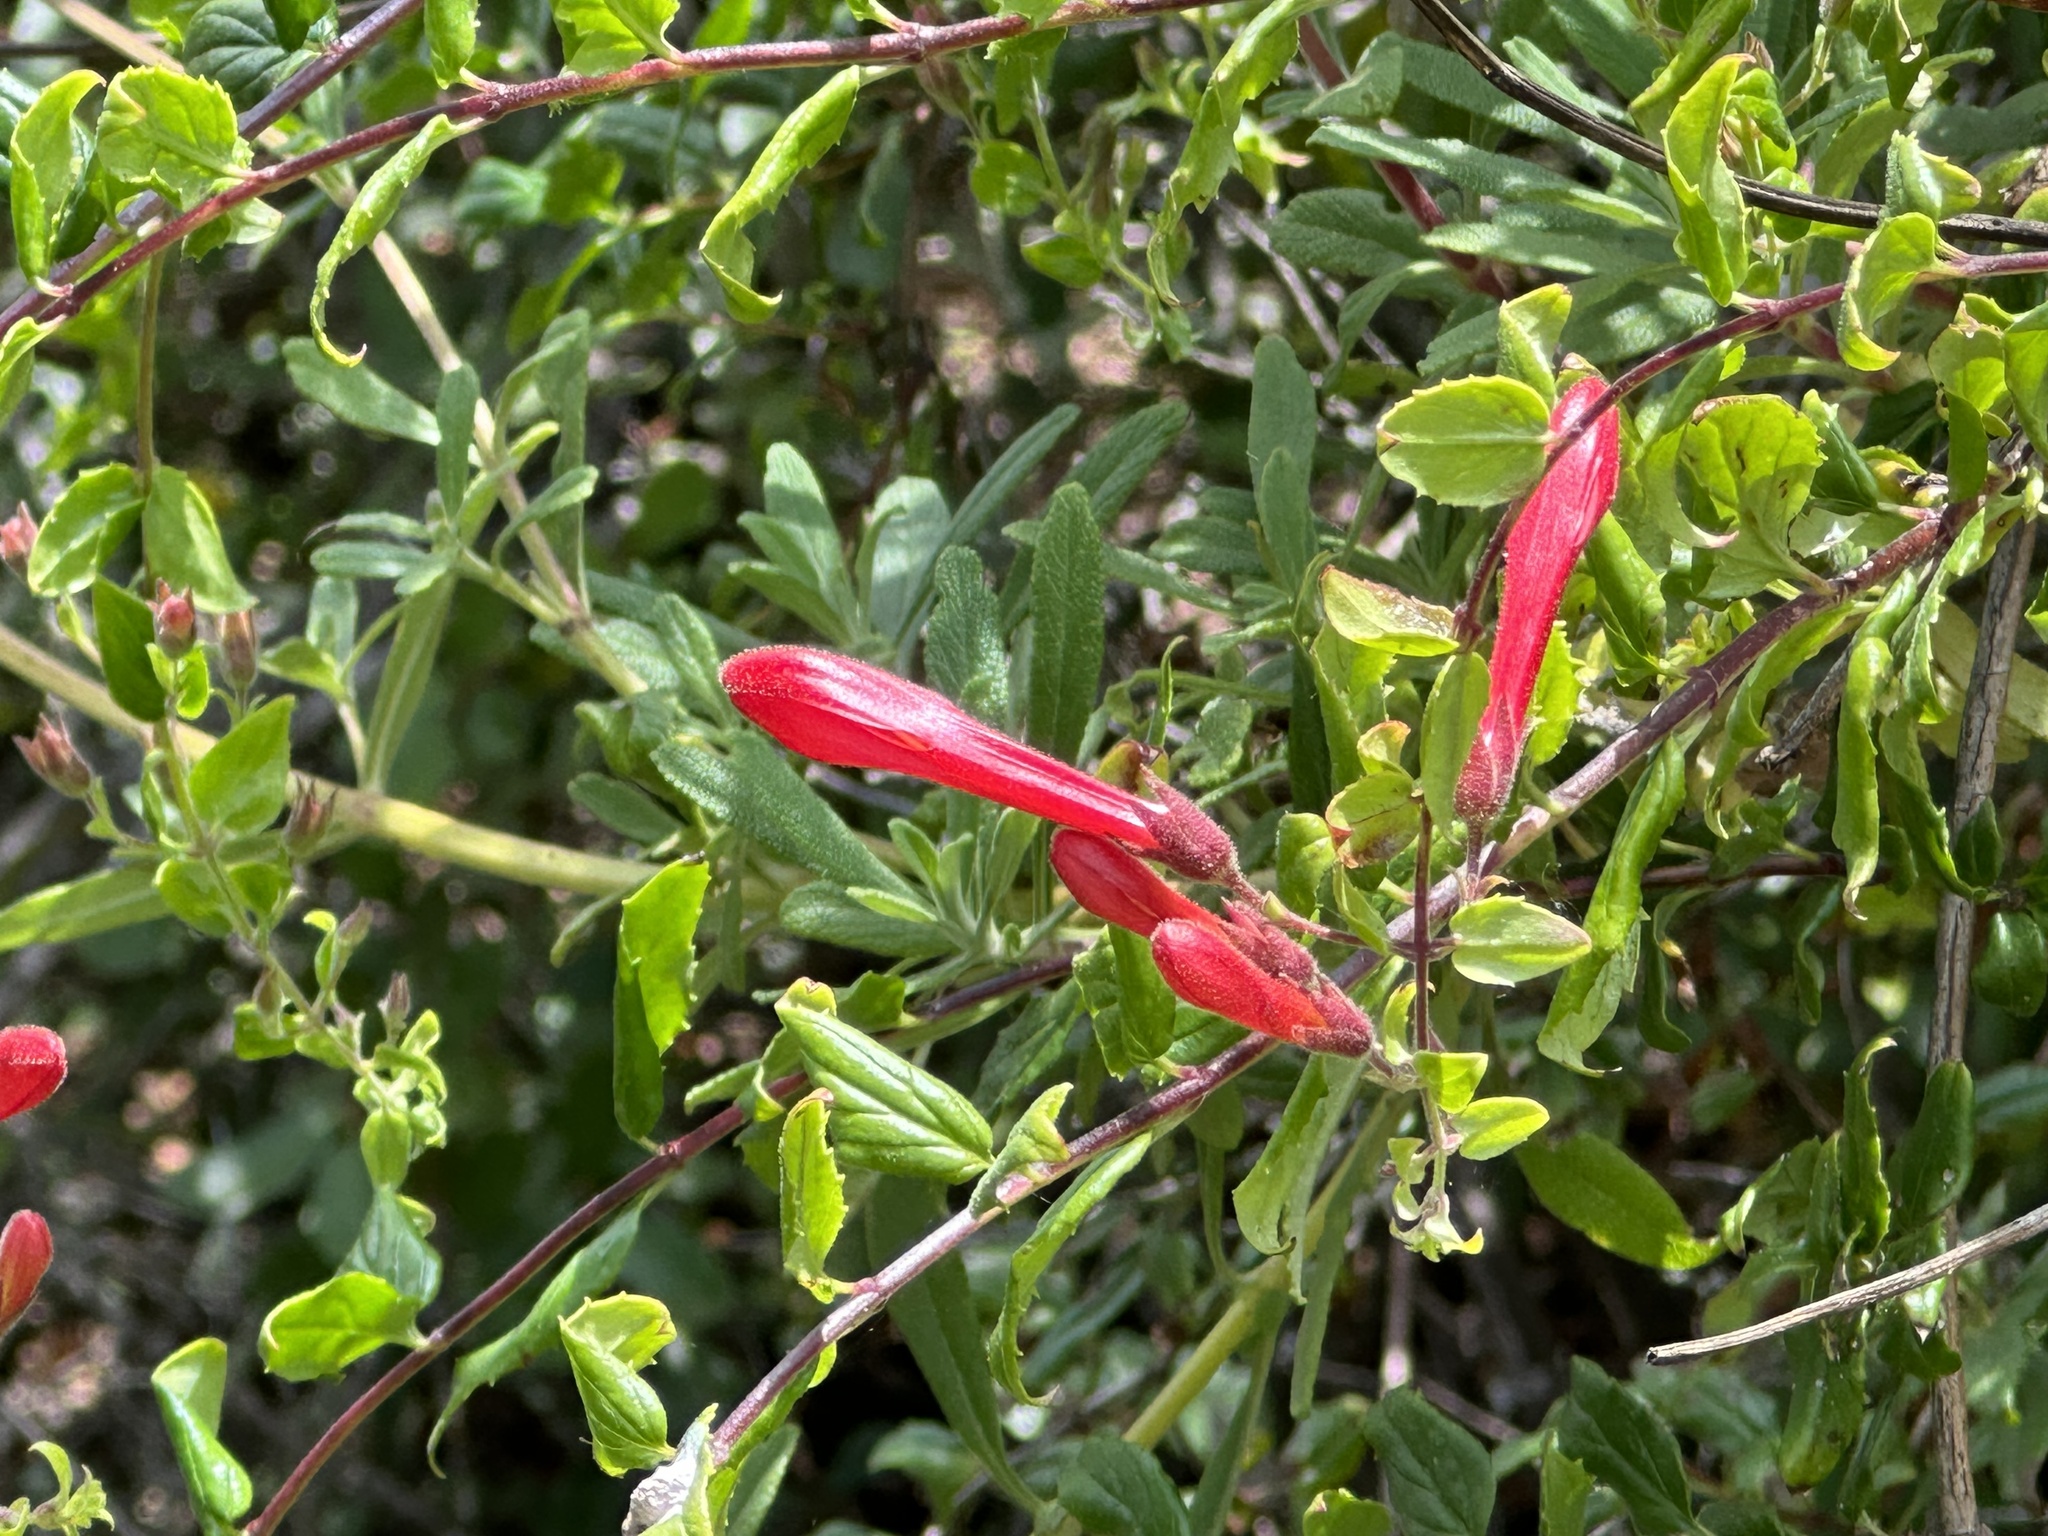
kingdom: Plantae
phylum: Tracheophyta
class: Magnoliopsida
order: Lamiales
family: Plantaginaceae
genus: Keckiella
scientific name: Keckiella cordifolia
